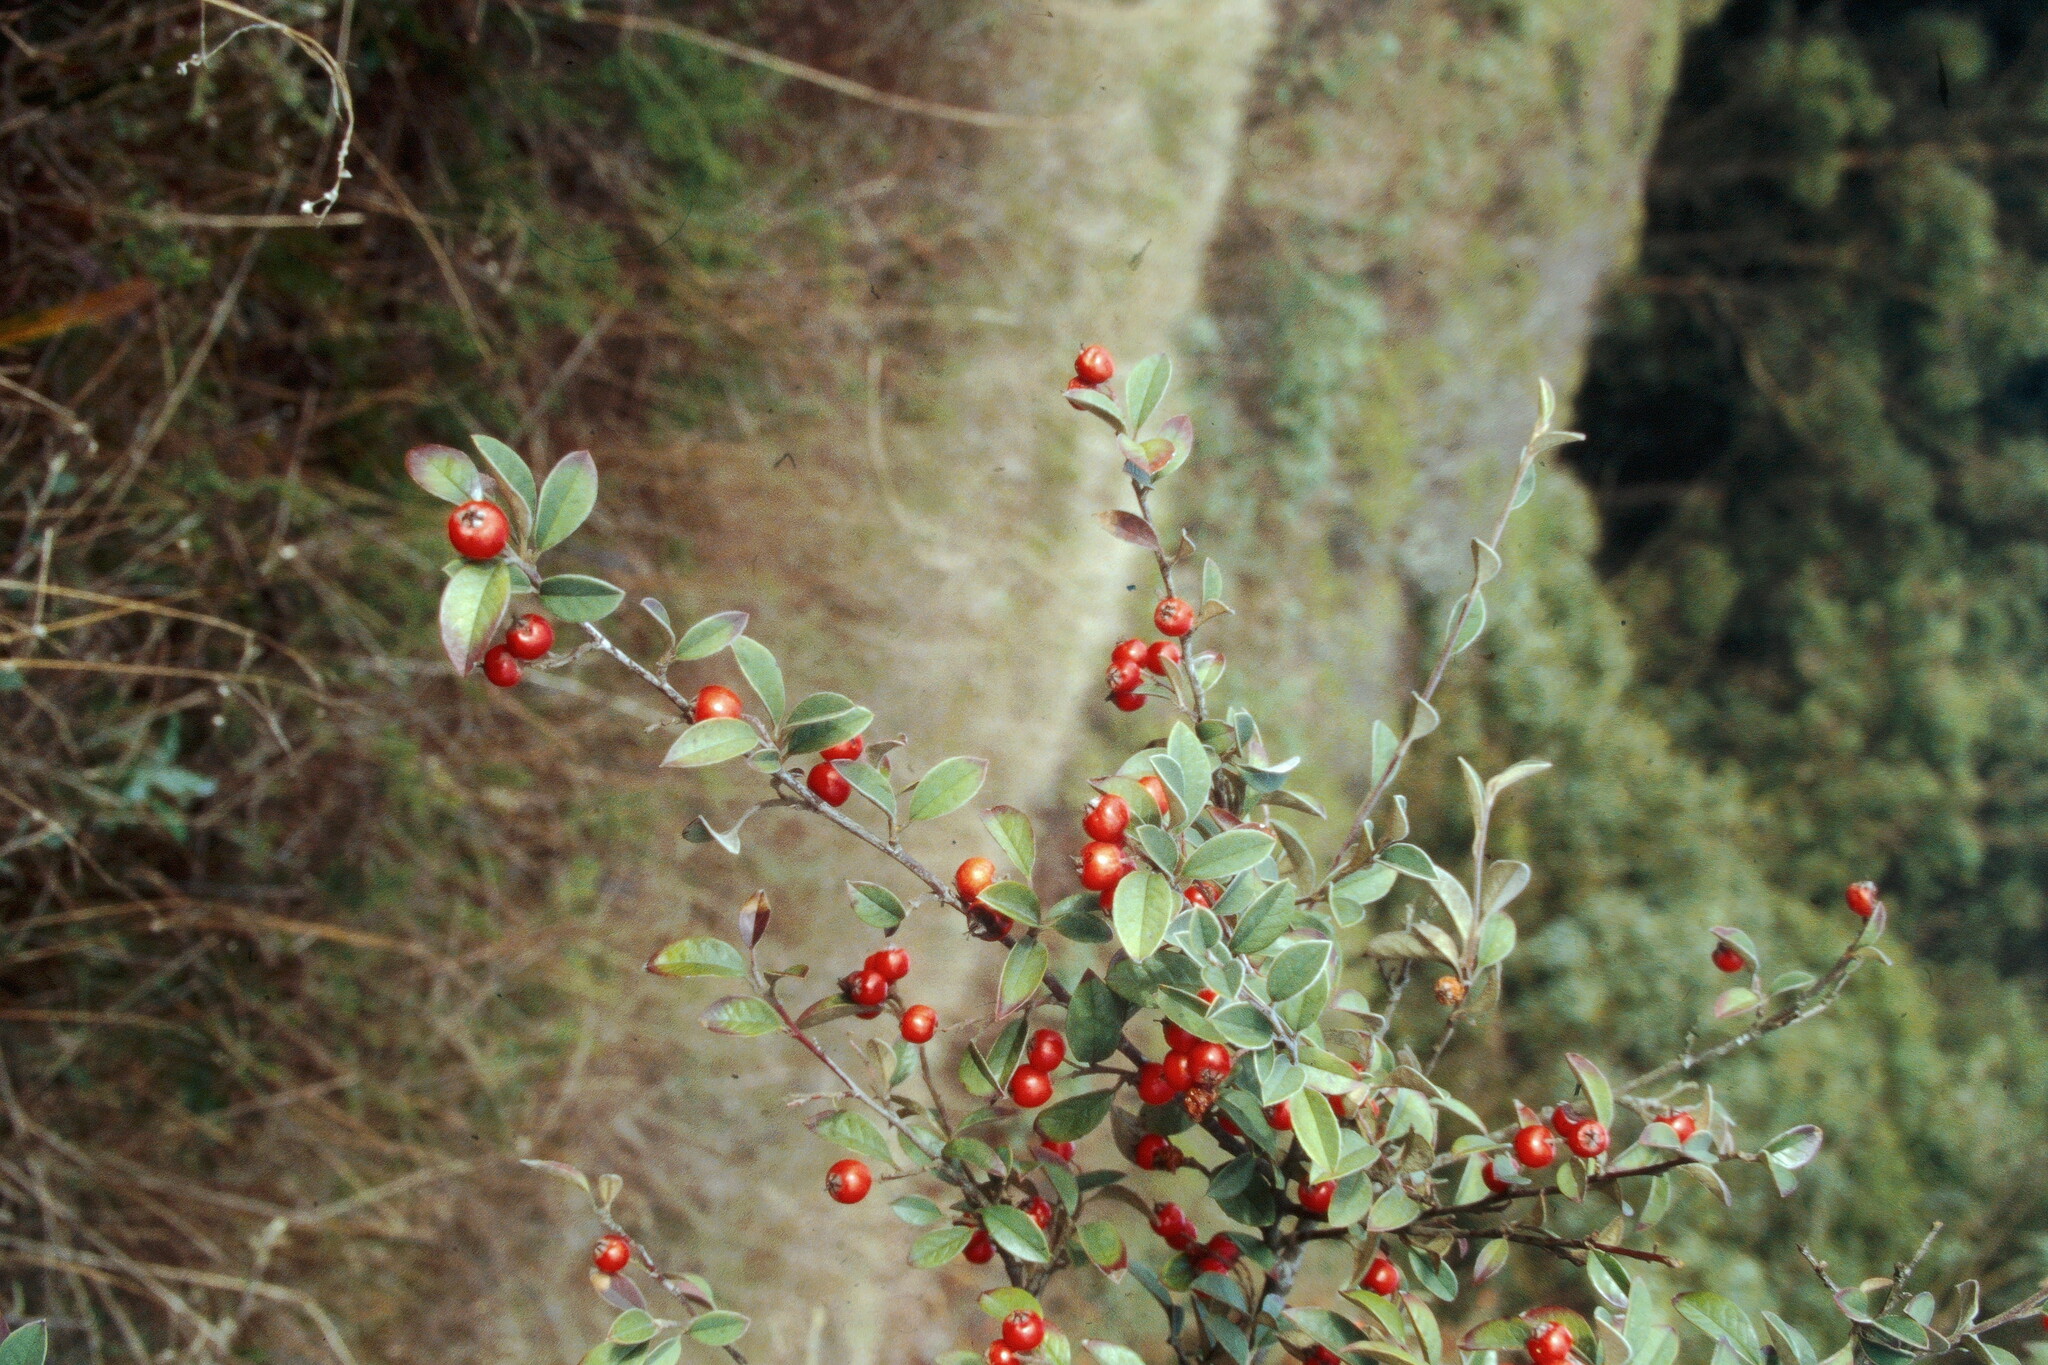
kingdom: Plantae
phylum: Tracheophyta
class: Magnoliopsida
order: Rosales
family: Rosaceae
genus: Cotoneaster
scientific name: Cotoneaster pannosus
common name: Silverleaf cotoneaster
